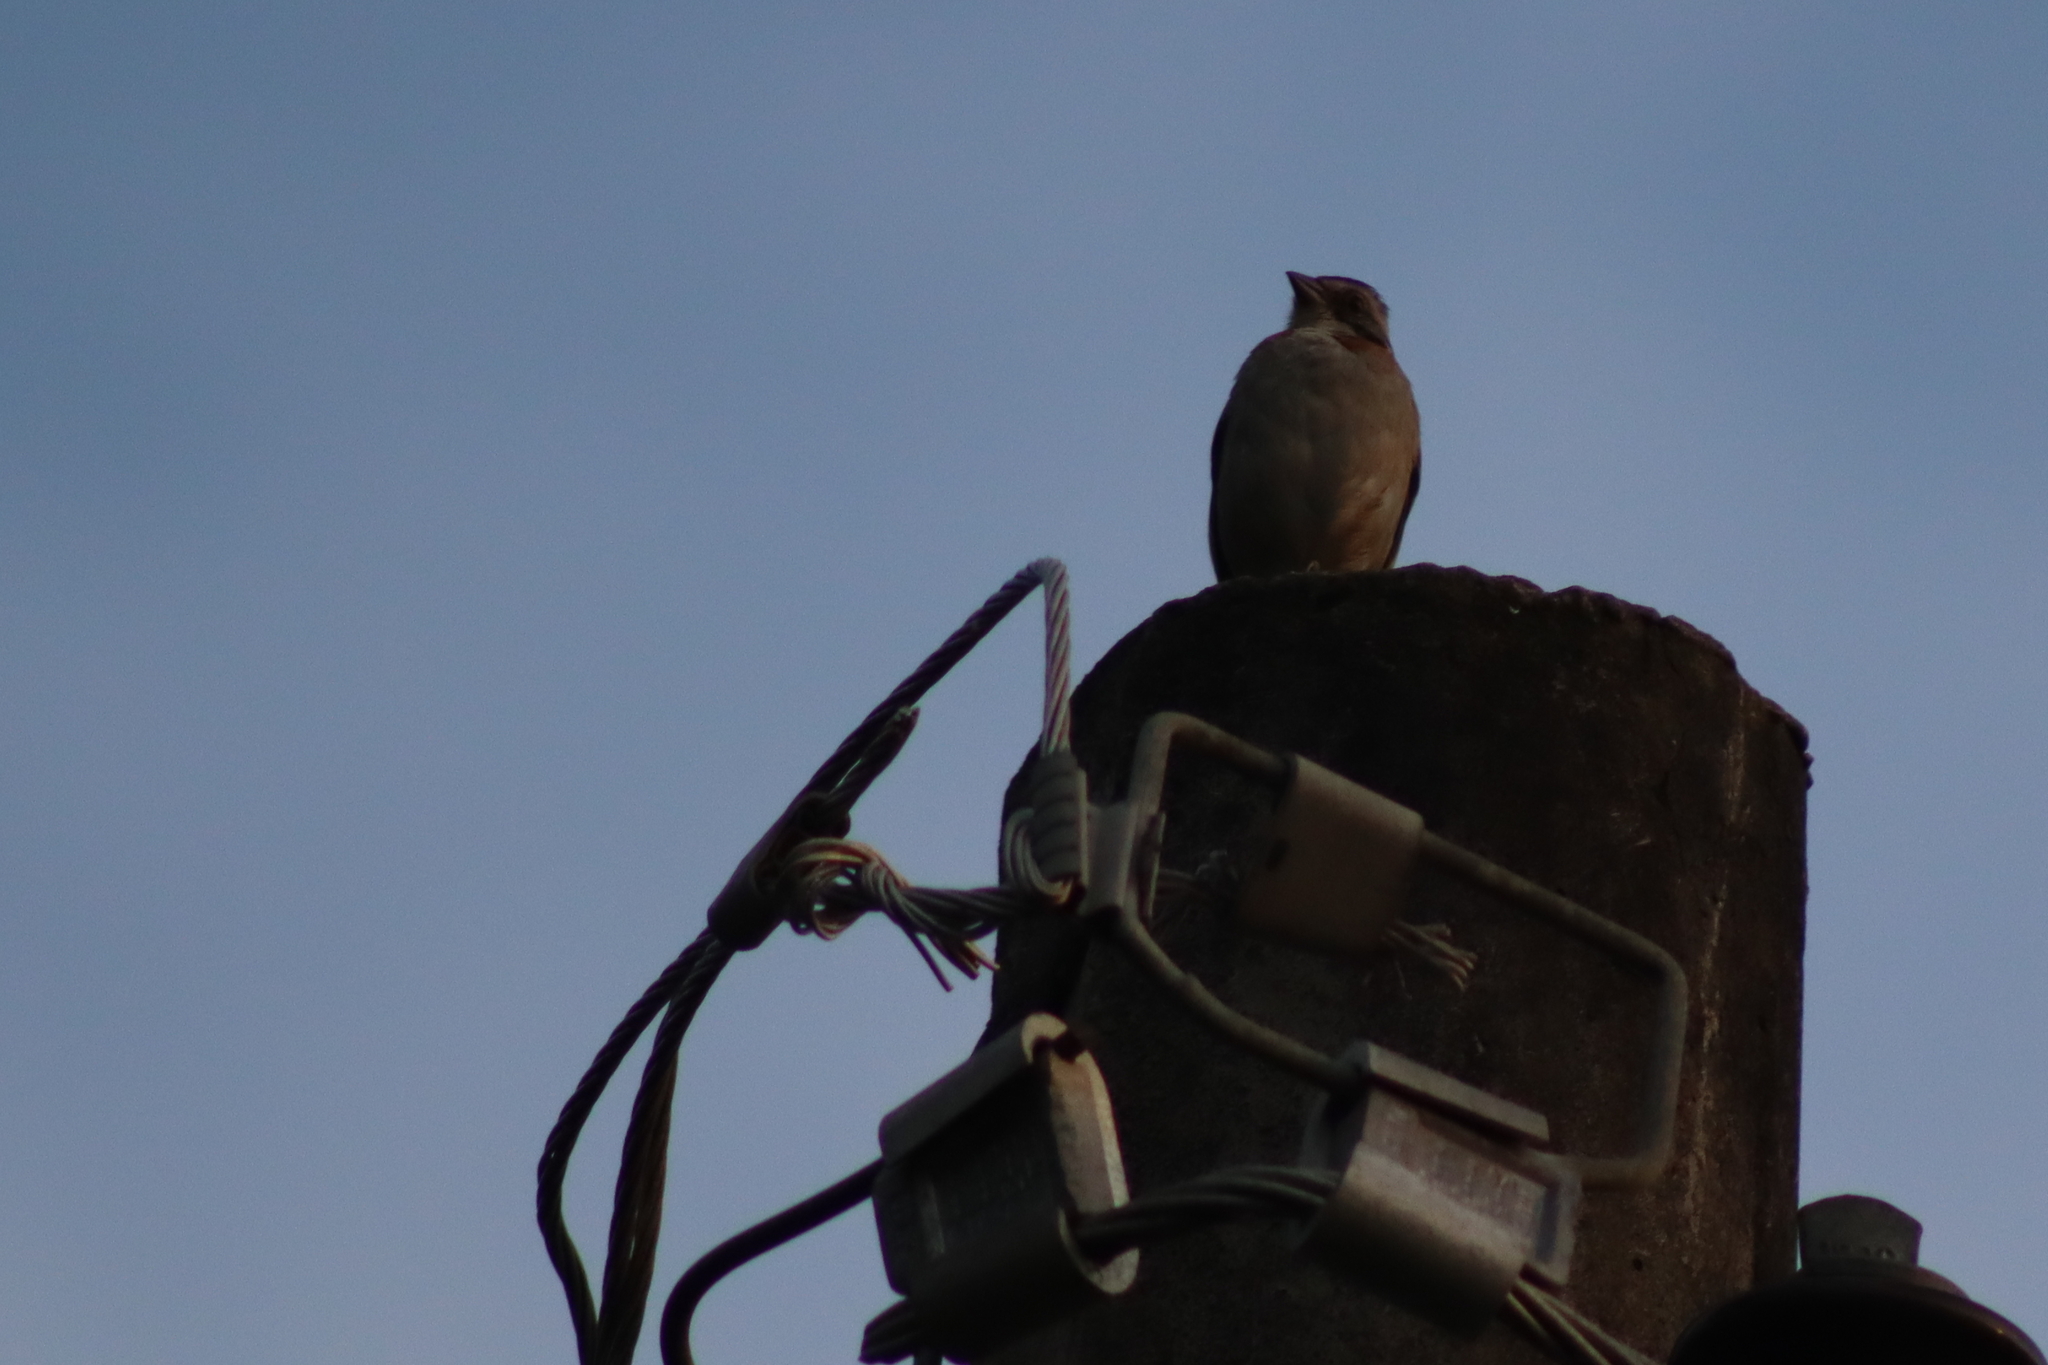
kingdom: Animalia
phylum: Chordata
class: Aves
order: Passeriformes
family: Passerellidae
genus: Zonotrichia
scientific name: Zonotrichia capensis
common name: Rufous-collared sparrow
